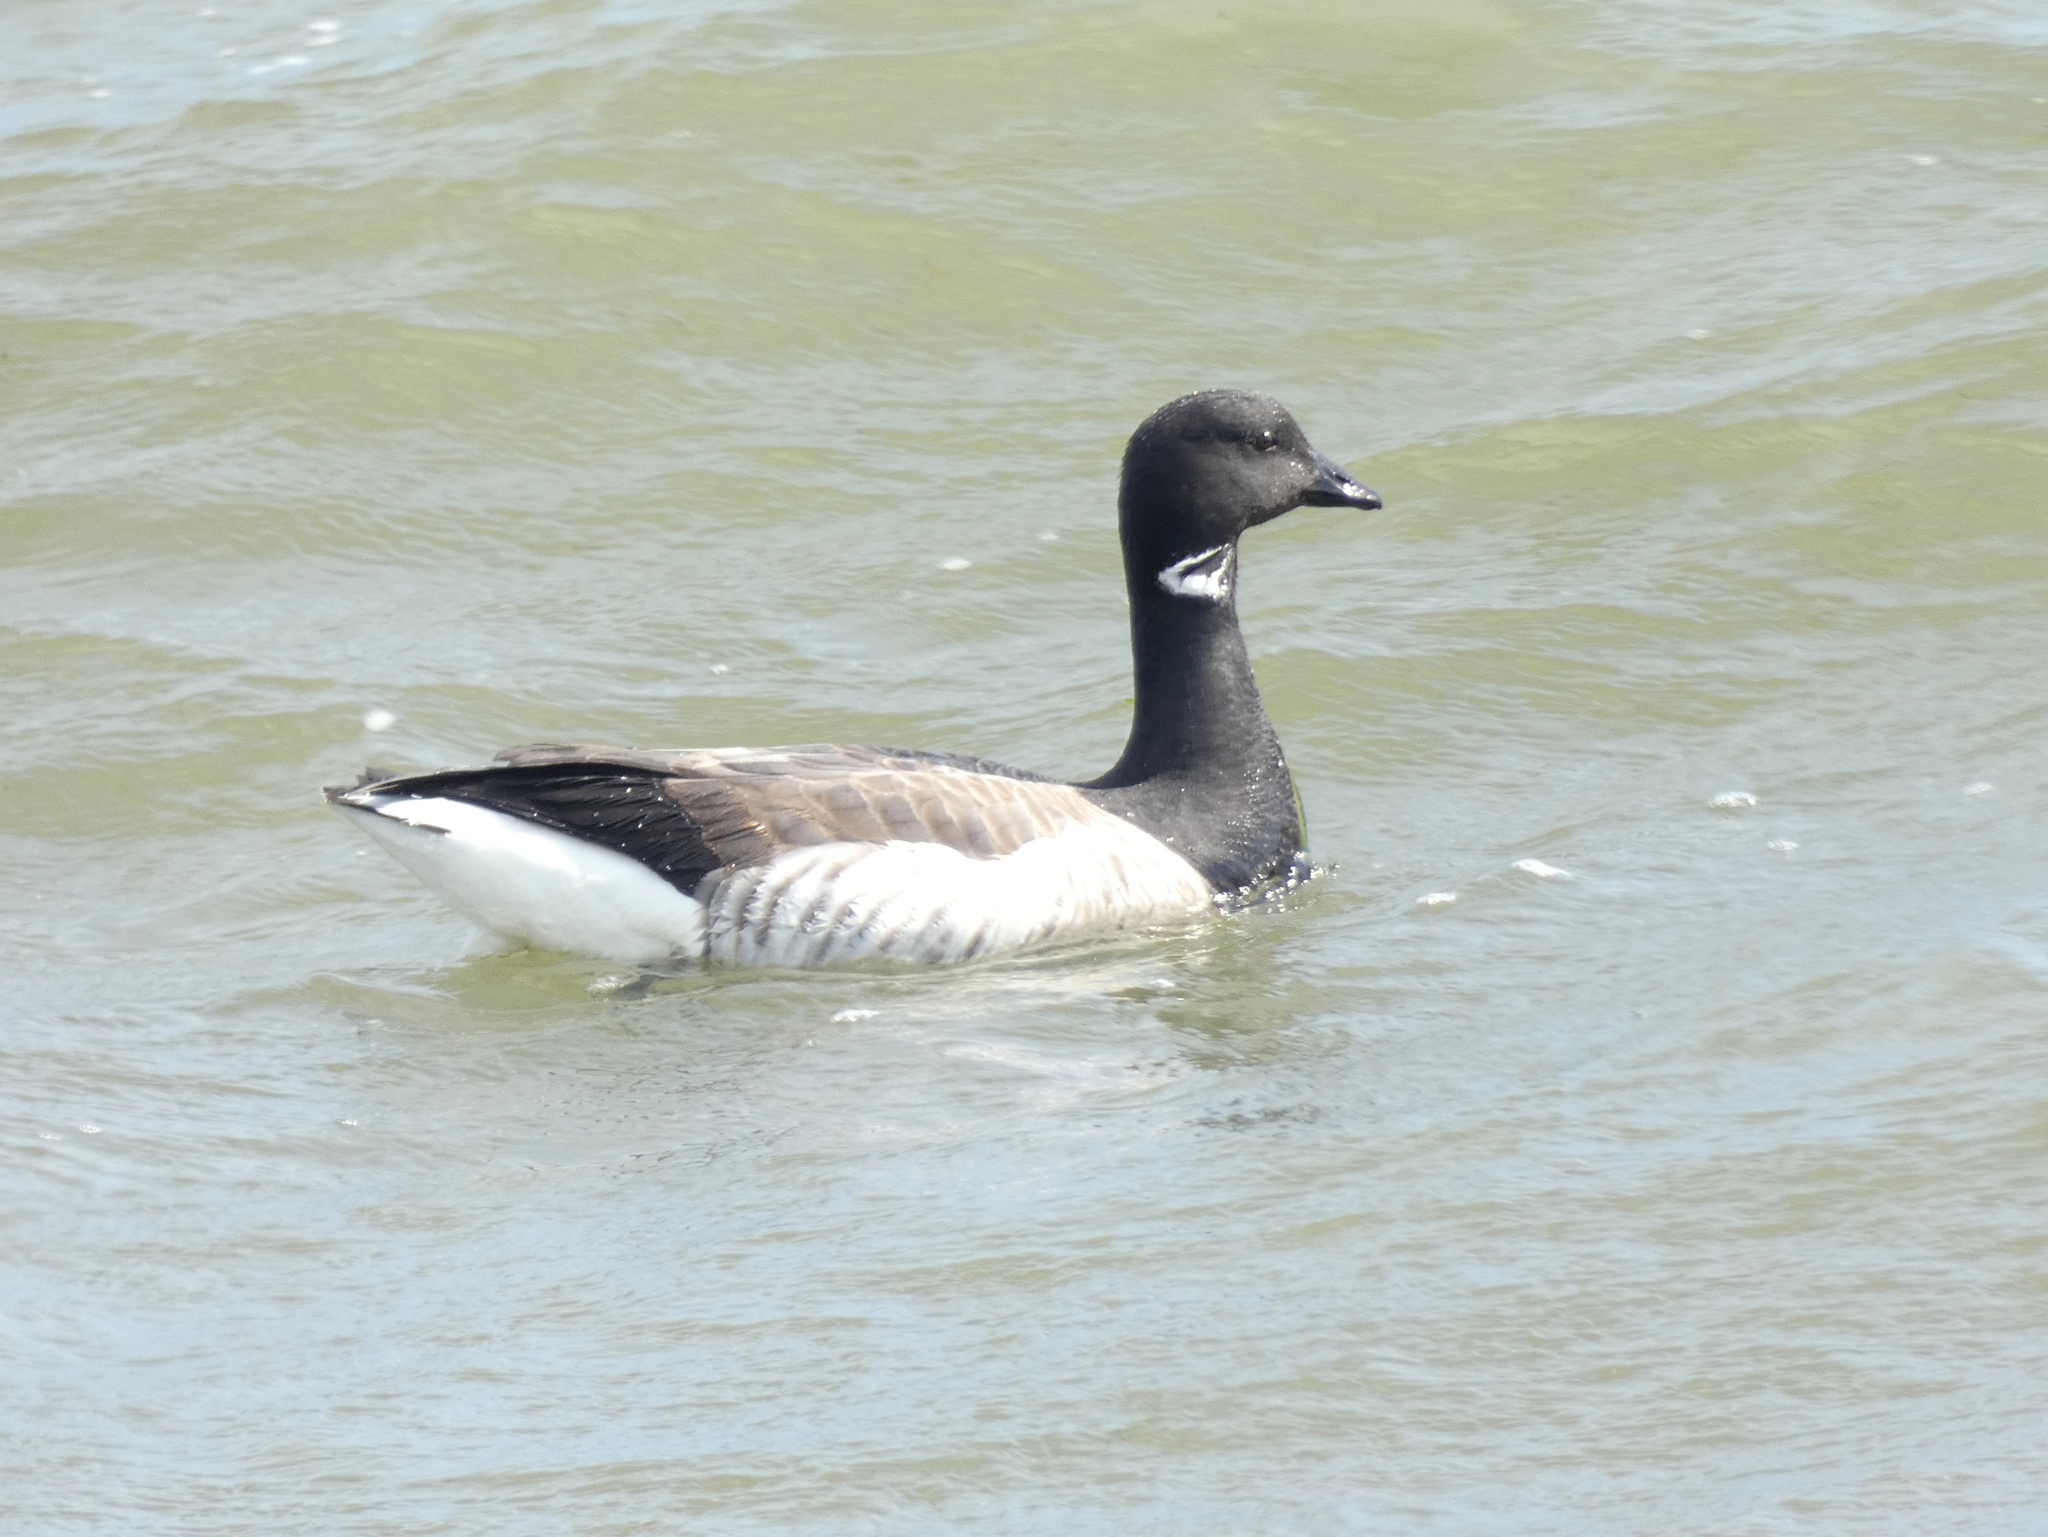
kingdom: Animalia
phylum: Chordata
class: Aves
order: Anseriformes
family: Anatidae
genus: Branta
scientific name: Branta bernicla
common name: Brant goose
